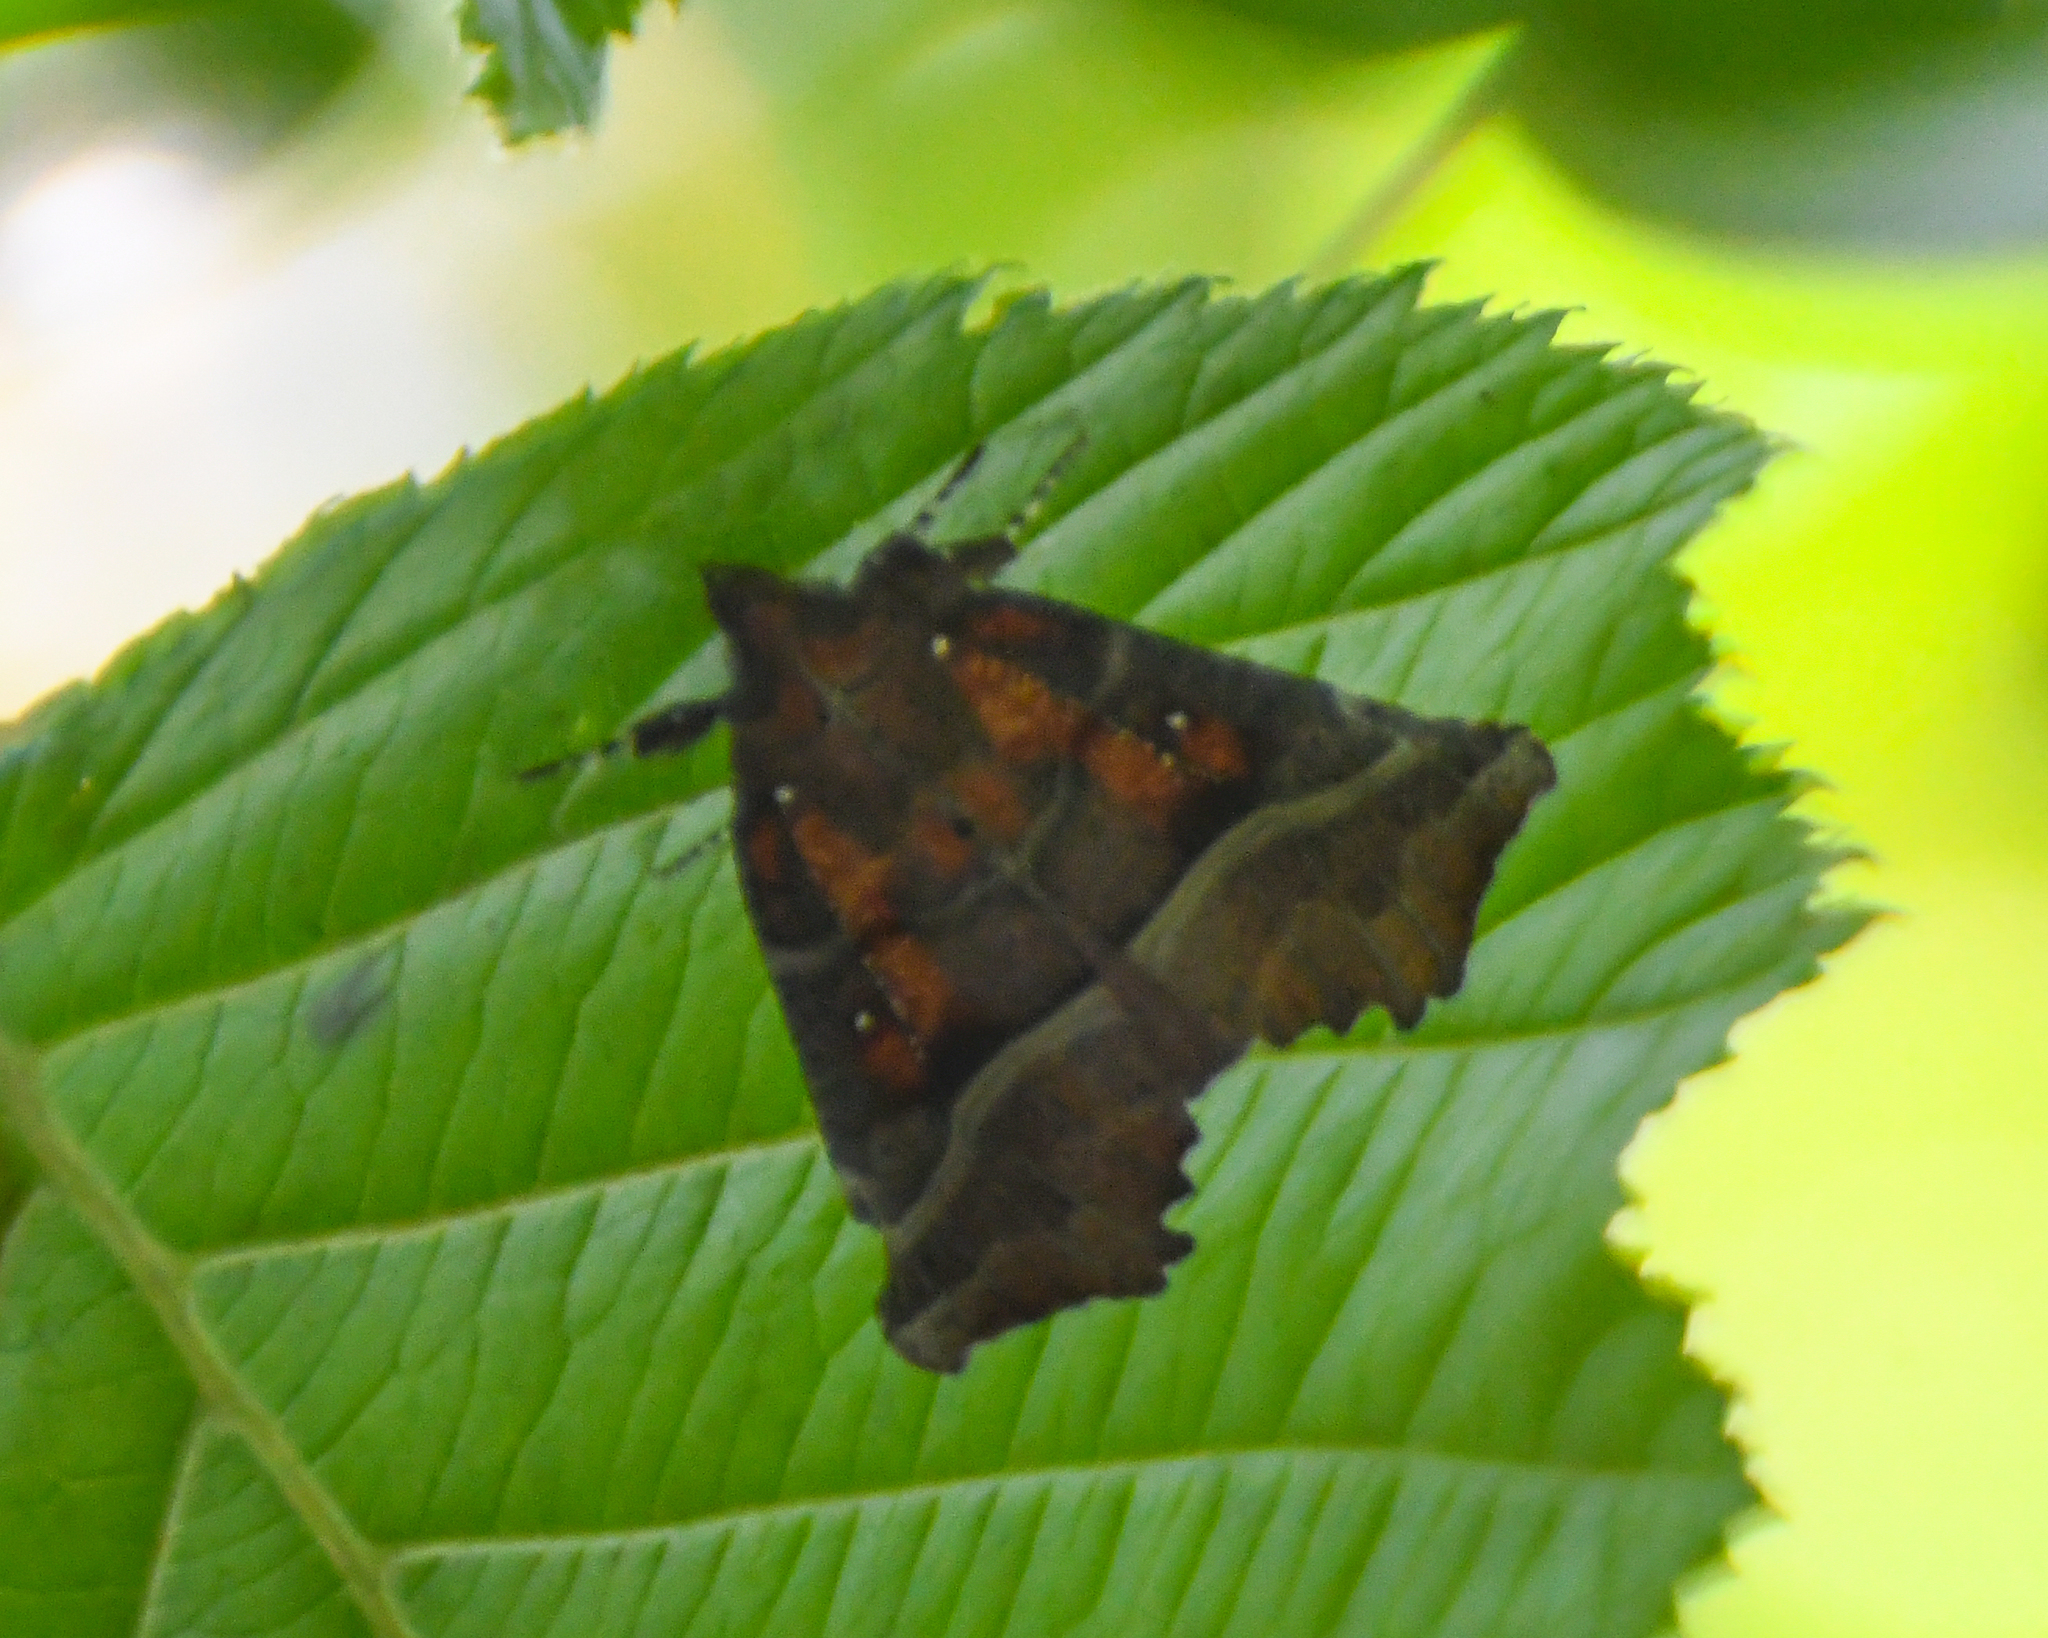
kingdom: Animalia
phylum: Arthropoda
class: Insecta
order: Lepidoptera
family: Erebidae
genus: Scoliopteryx
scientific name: Scoliopteryx libatrix
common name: Herald
